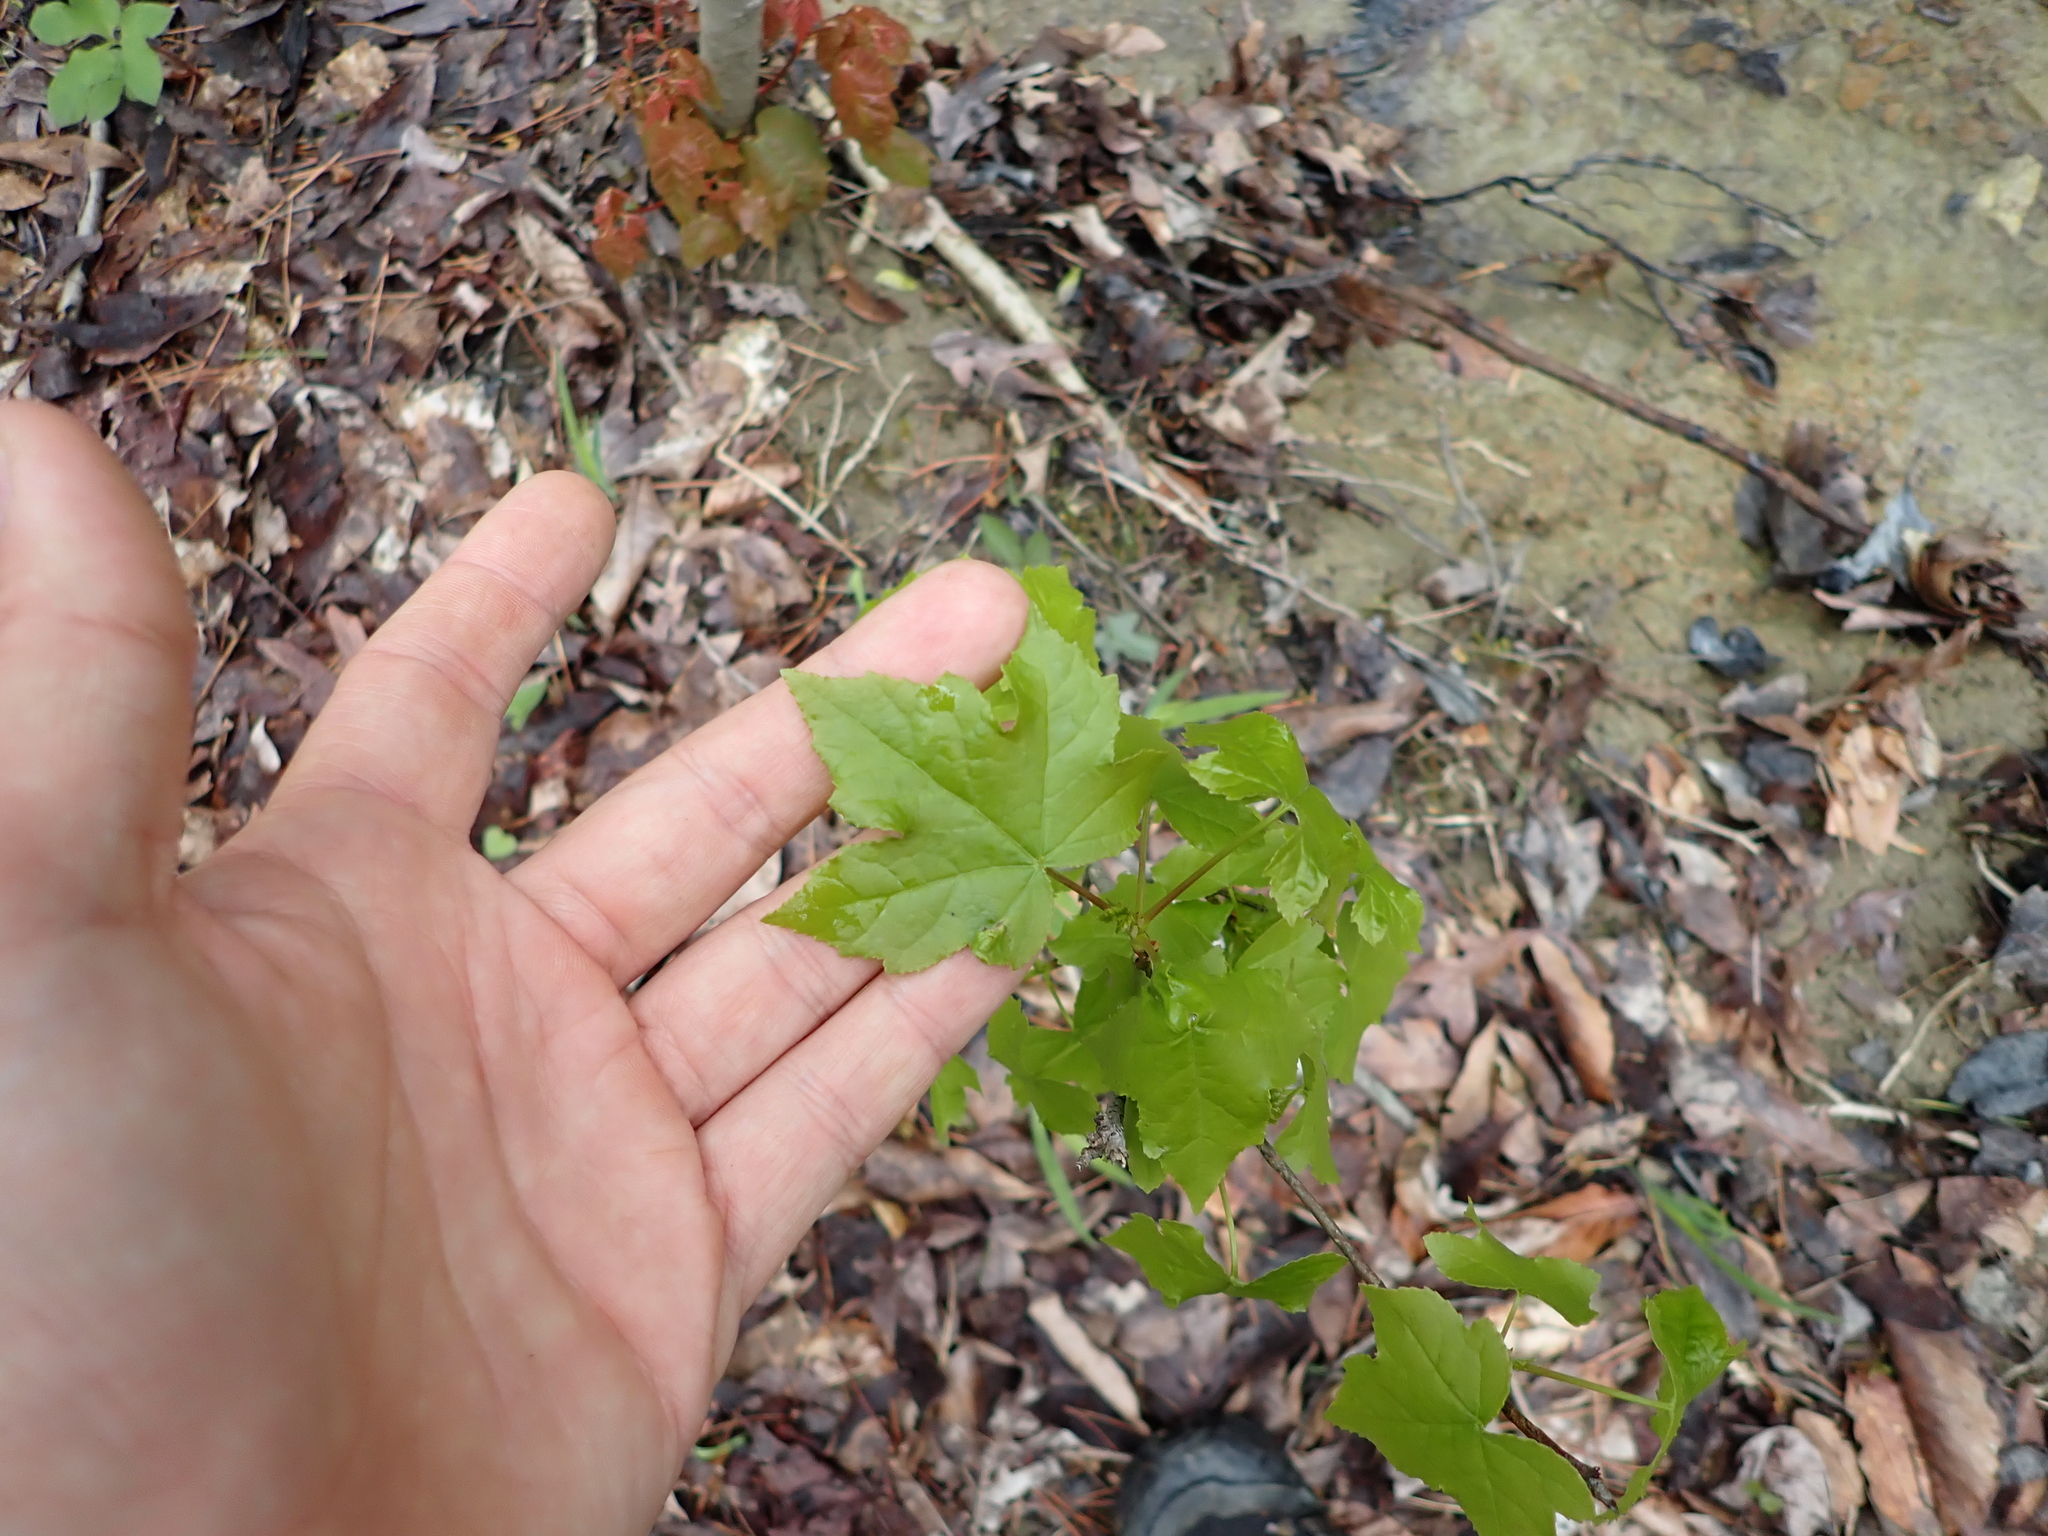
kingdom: Plantae
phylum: Tracheophyta
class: Magnoliopsida
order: Saxifragales
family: Altingiaceae
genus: Liquidambar
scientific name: Liquidambar styraciflua
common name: Sweet gum
